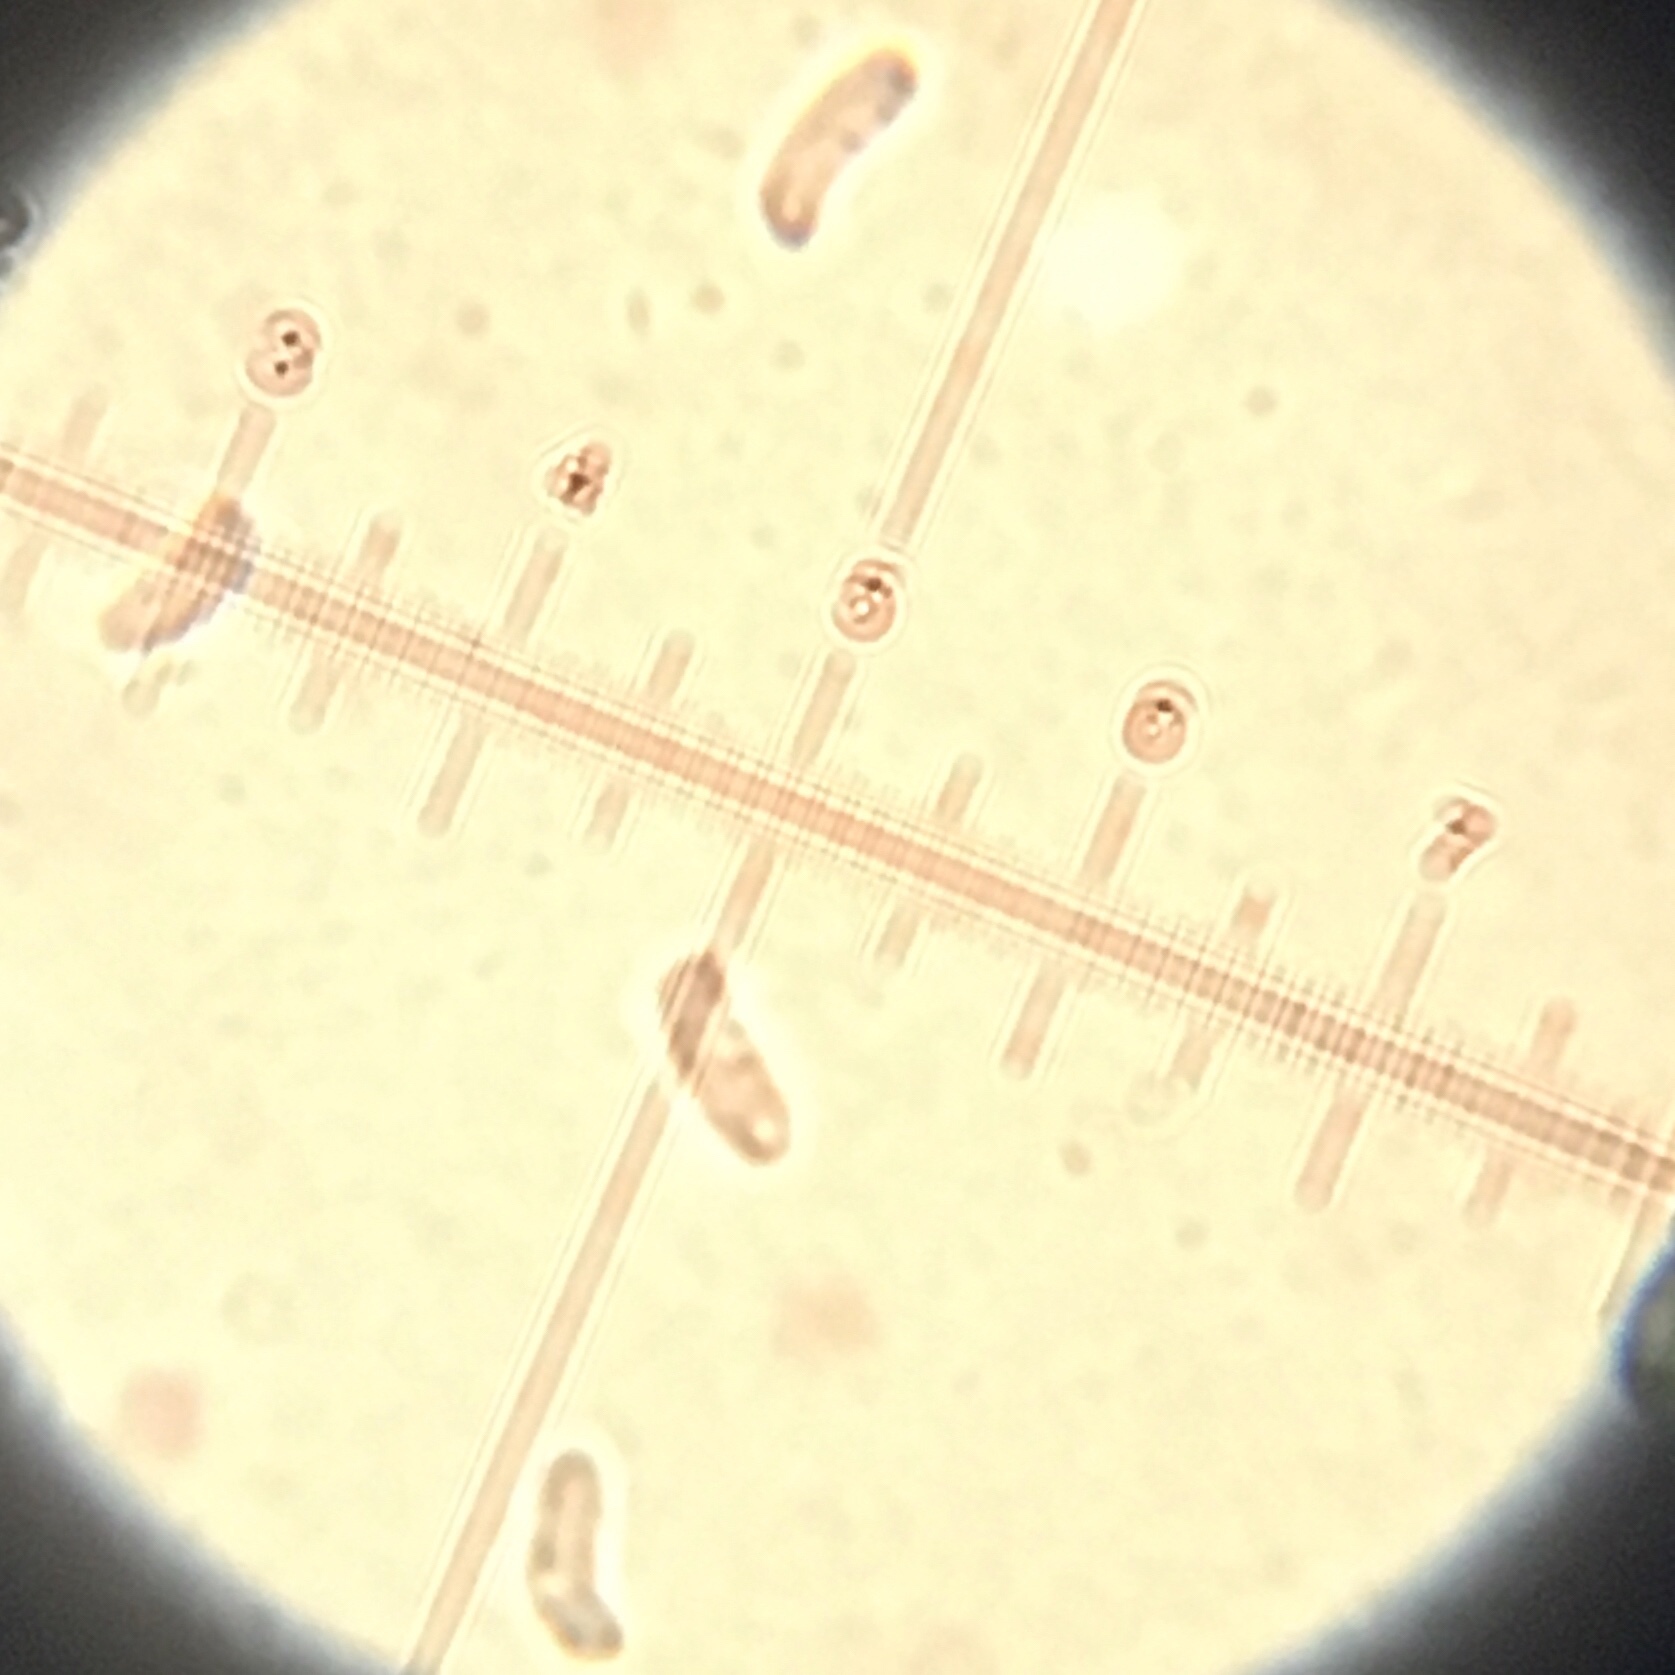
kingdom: Fungi
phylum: Basidiomycota
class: Agaricomycetes
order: Polyporales
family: Polyporaceae
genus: Trametes
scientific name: Trametes lactinea
